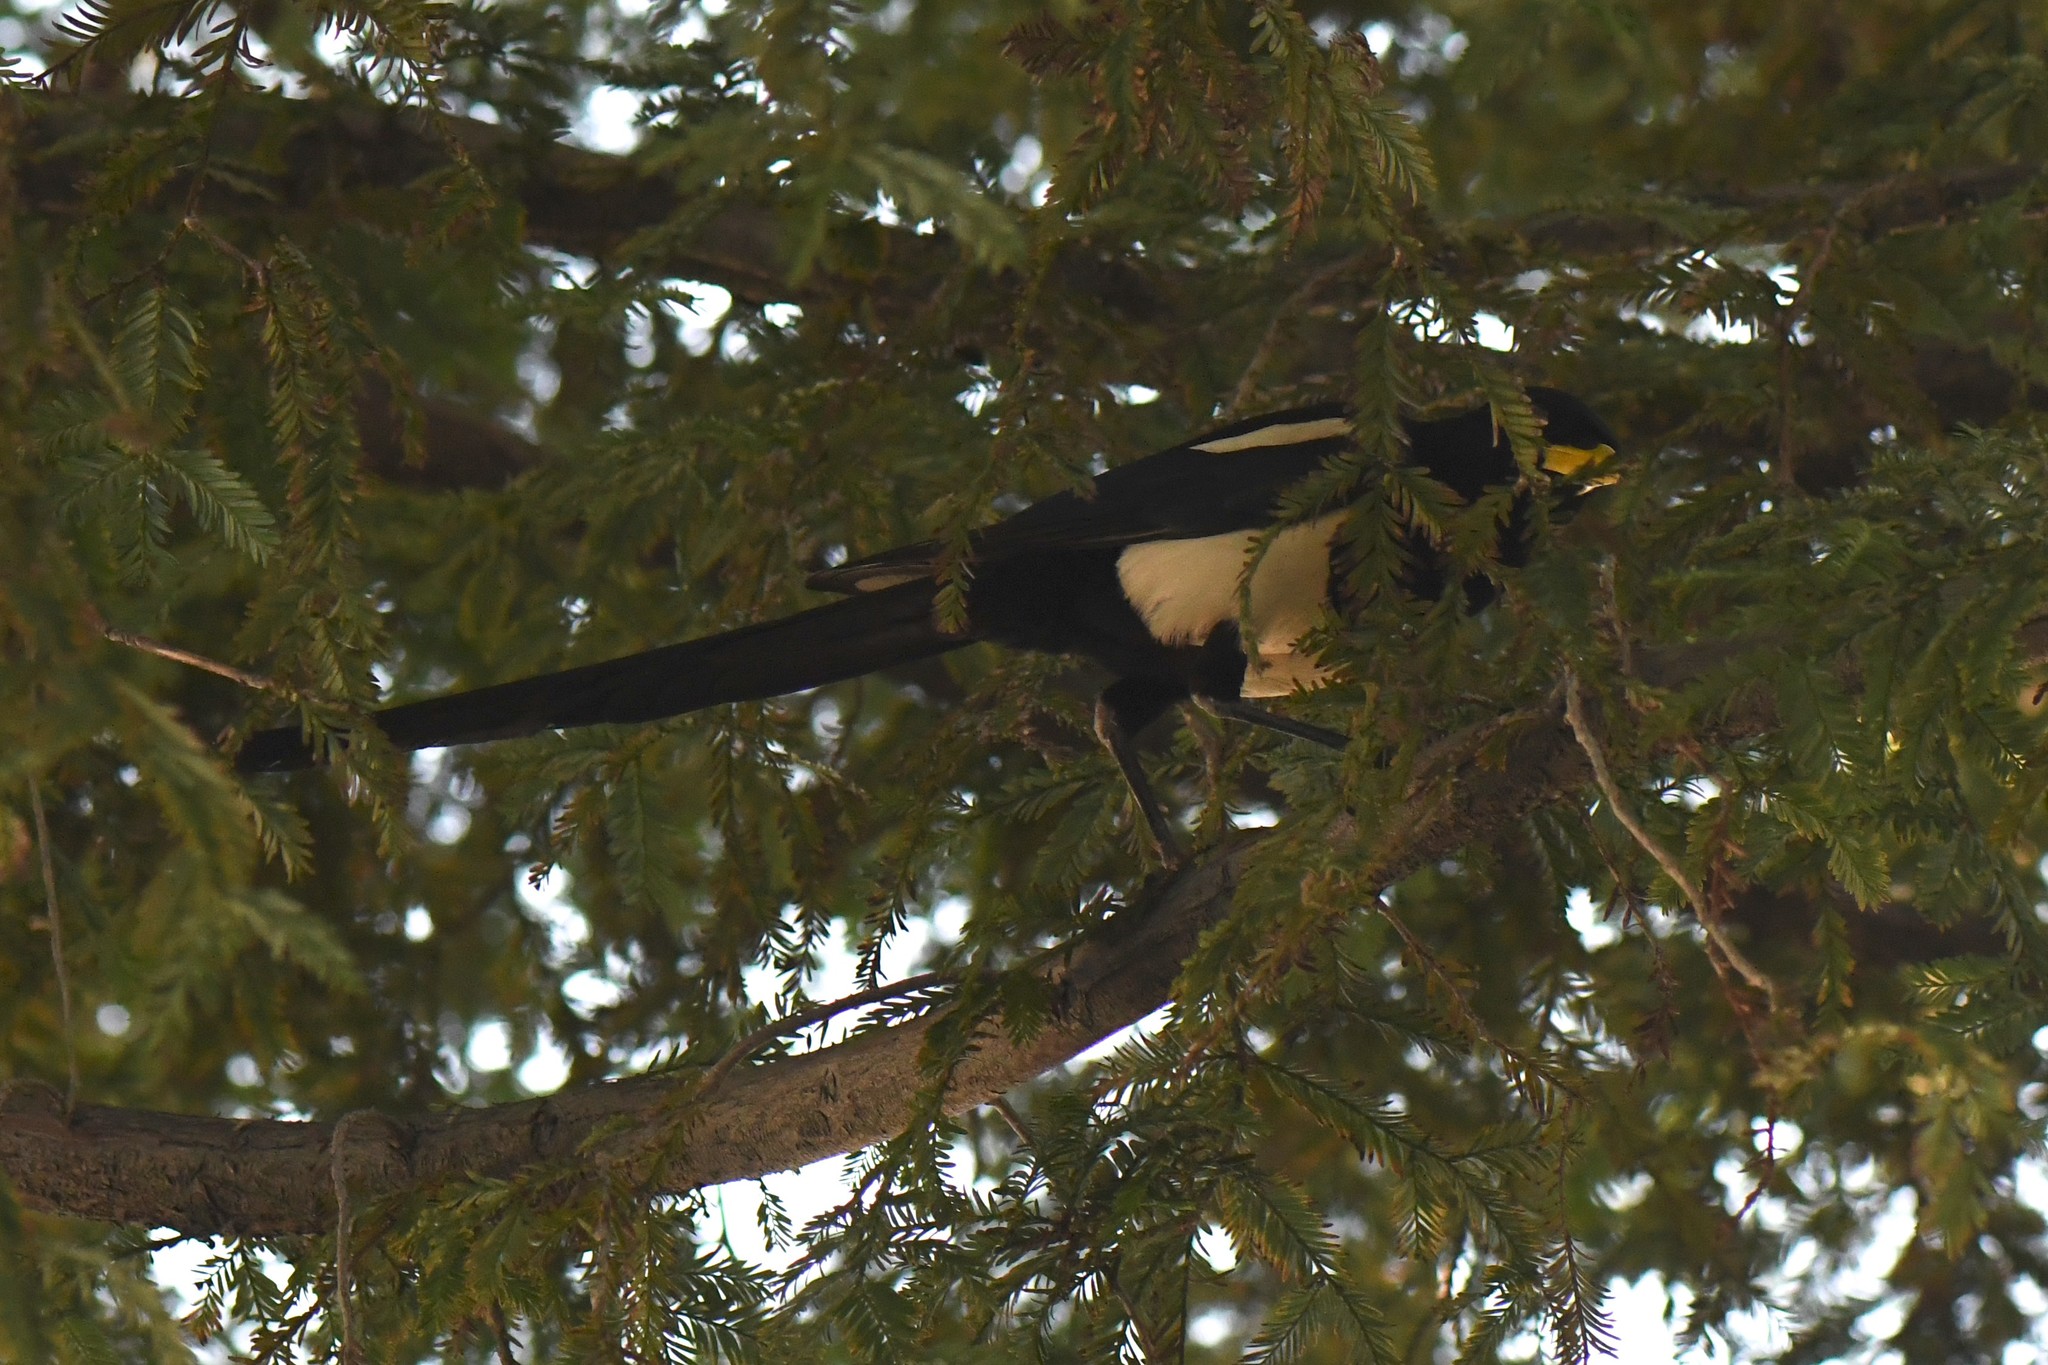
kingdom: Animalia
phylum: Chordata
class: Aves
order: Passeriformes
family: Corvidae
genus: Pica
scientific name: Pica nuttalli
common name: Yellow-billed magpie
